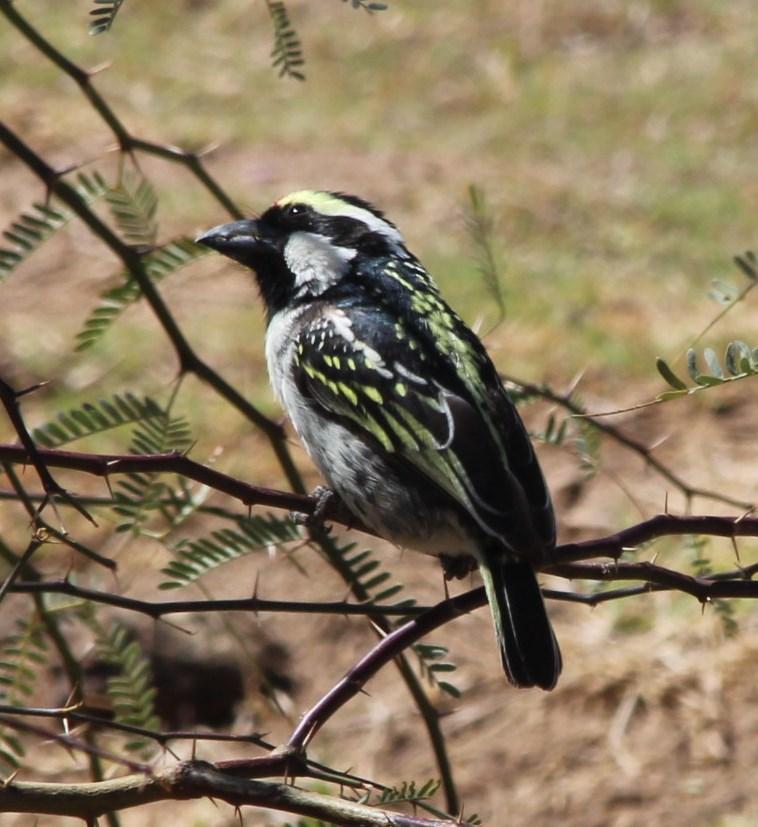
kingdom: Animalia
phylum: Chordata
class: Aves
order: Piciformes
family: Lybiidae
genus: Tricholaema
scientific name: Tricholaema leucomelas
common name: Acacia pied barbet
